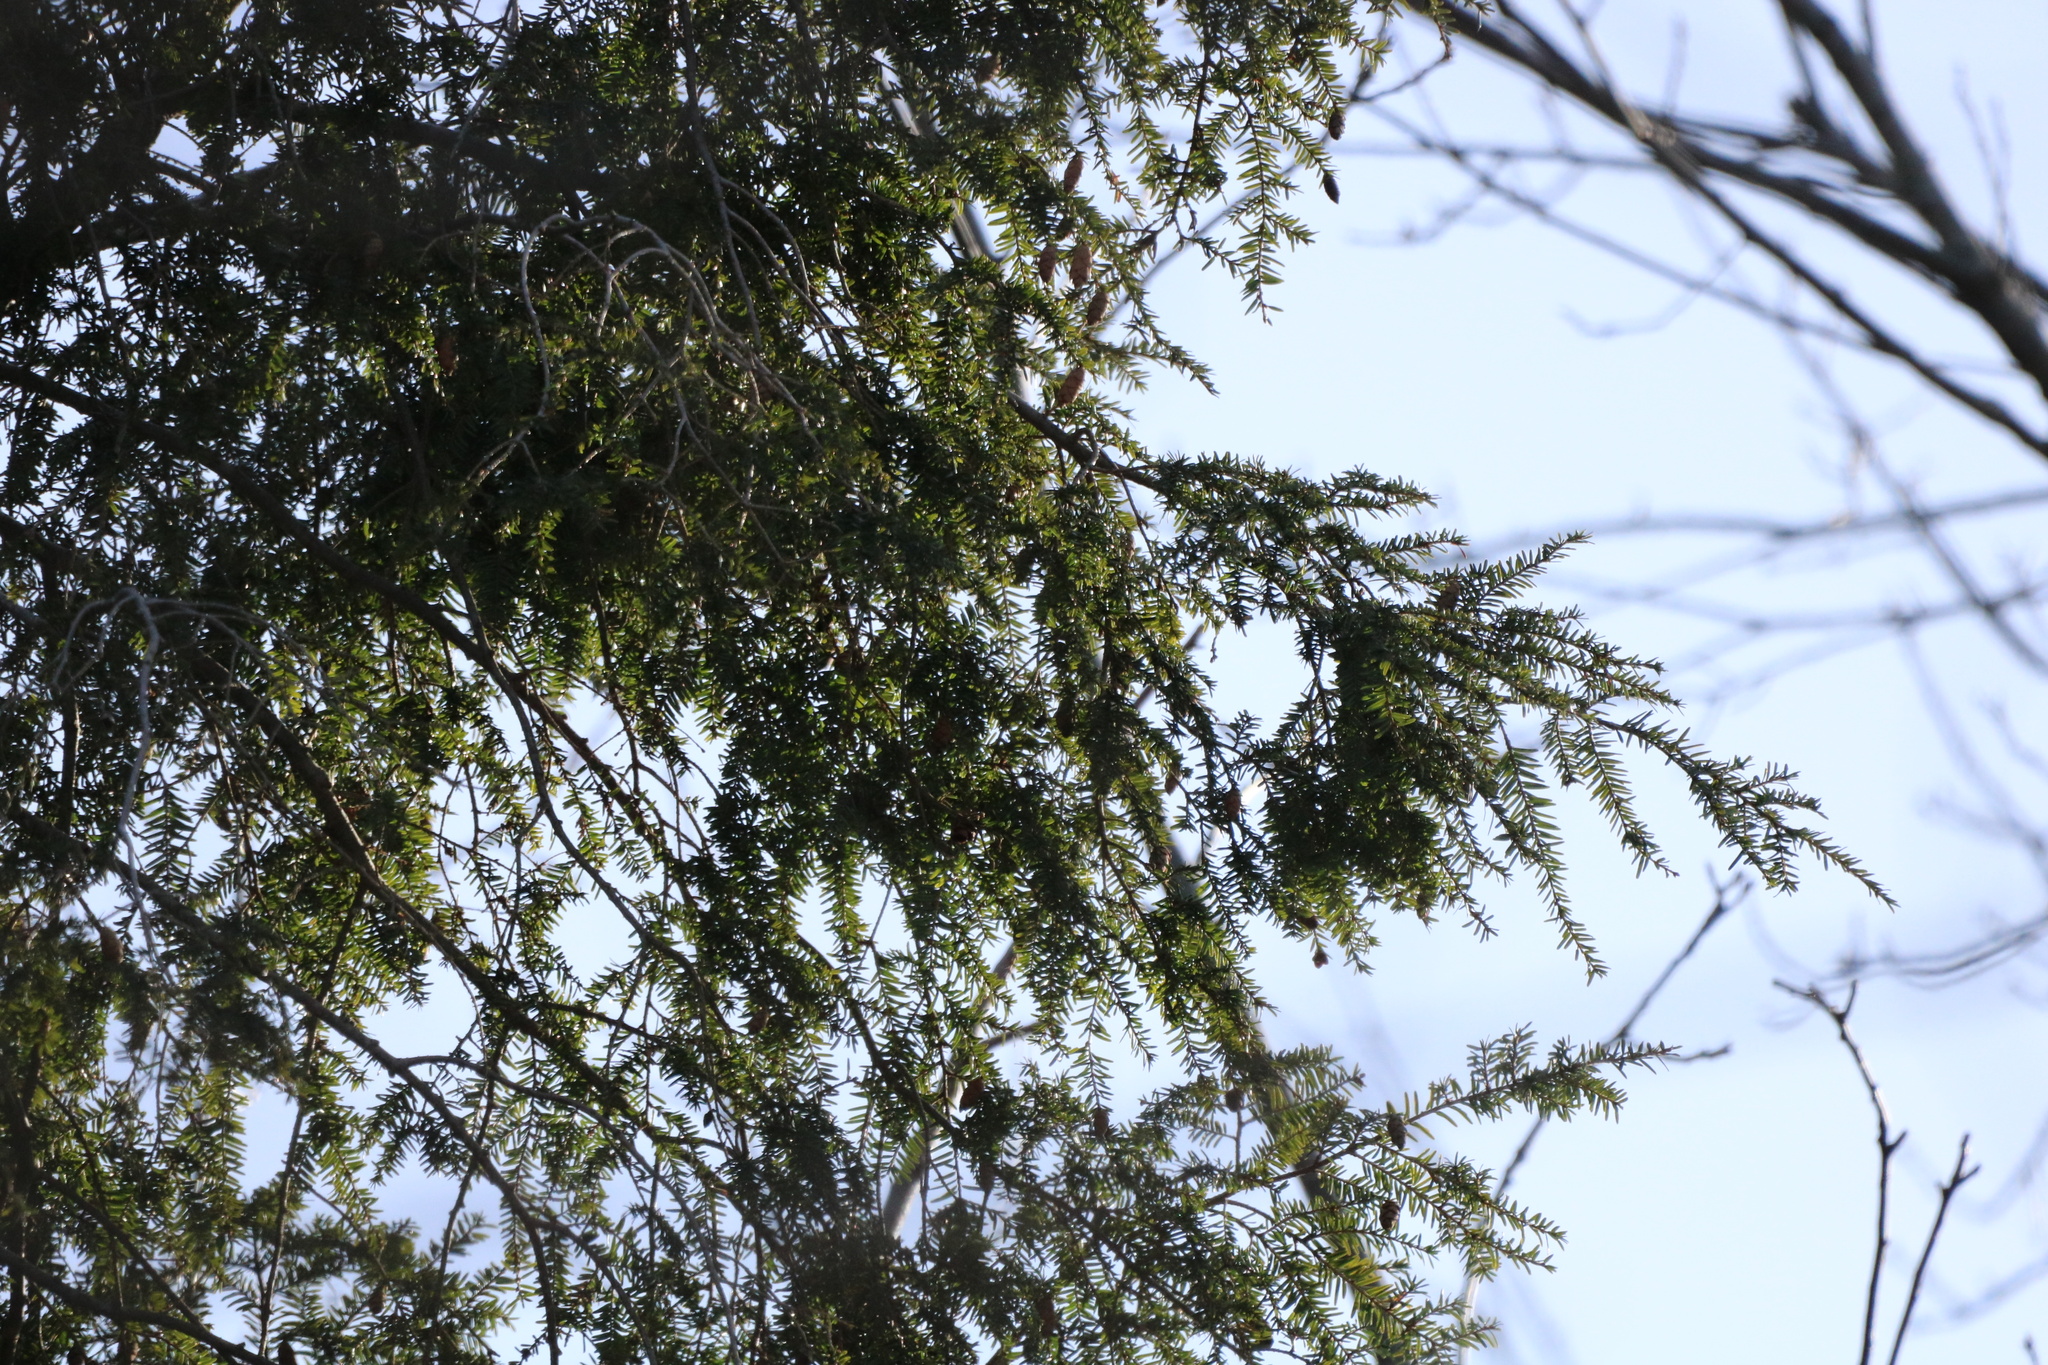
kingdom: Plantae
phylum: Tracheophyta
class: Pinopsida
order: Pinales
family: Pinaceae
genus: Tsuga
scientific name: Tsuga canadensis
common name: Eastern hemlock
